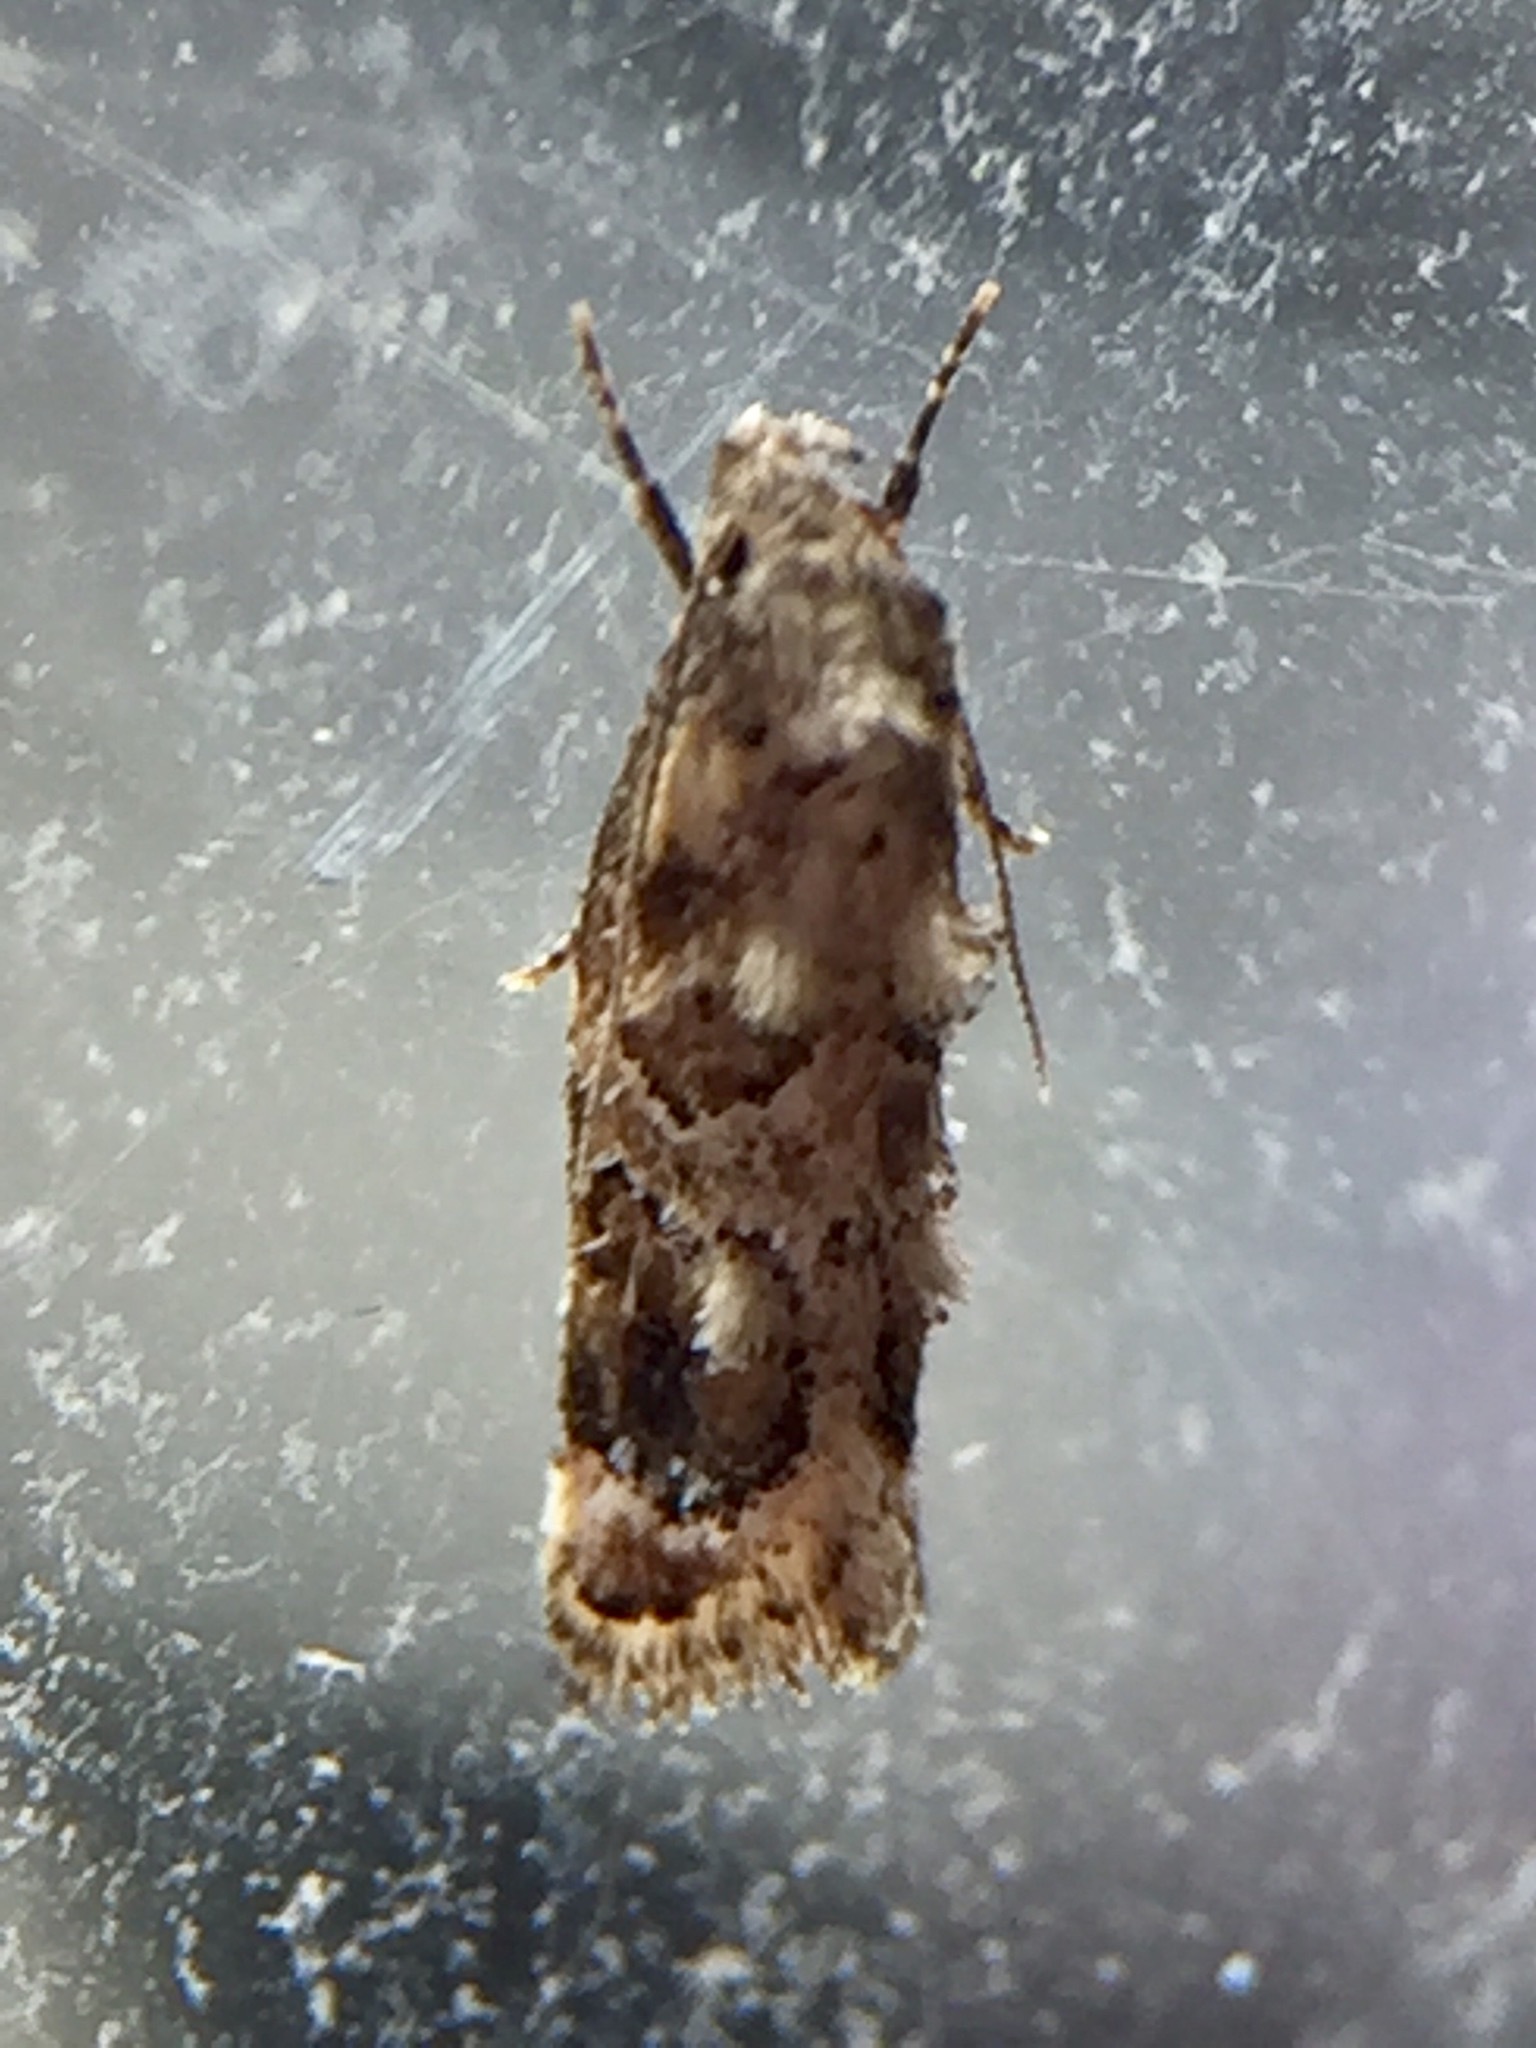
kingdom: Animalia
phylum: Arthropoda
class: Insecta
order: Lepidoptera
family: Oecophoridae
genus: Trachypepla
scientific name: Trachypepla aspidephora
